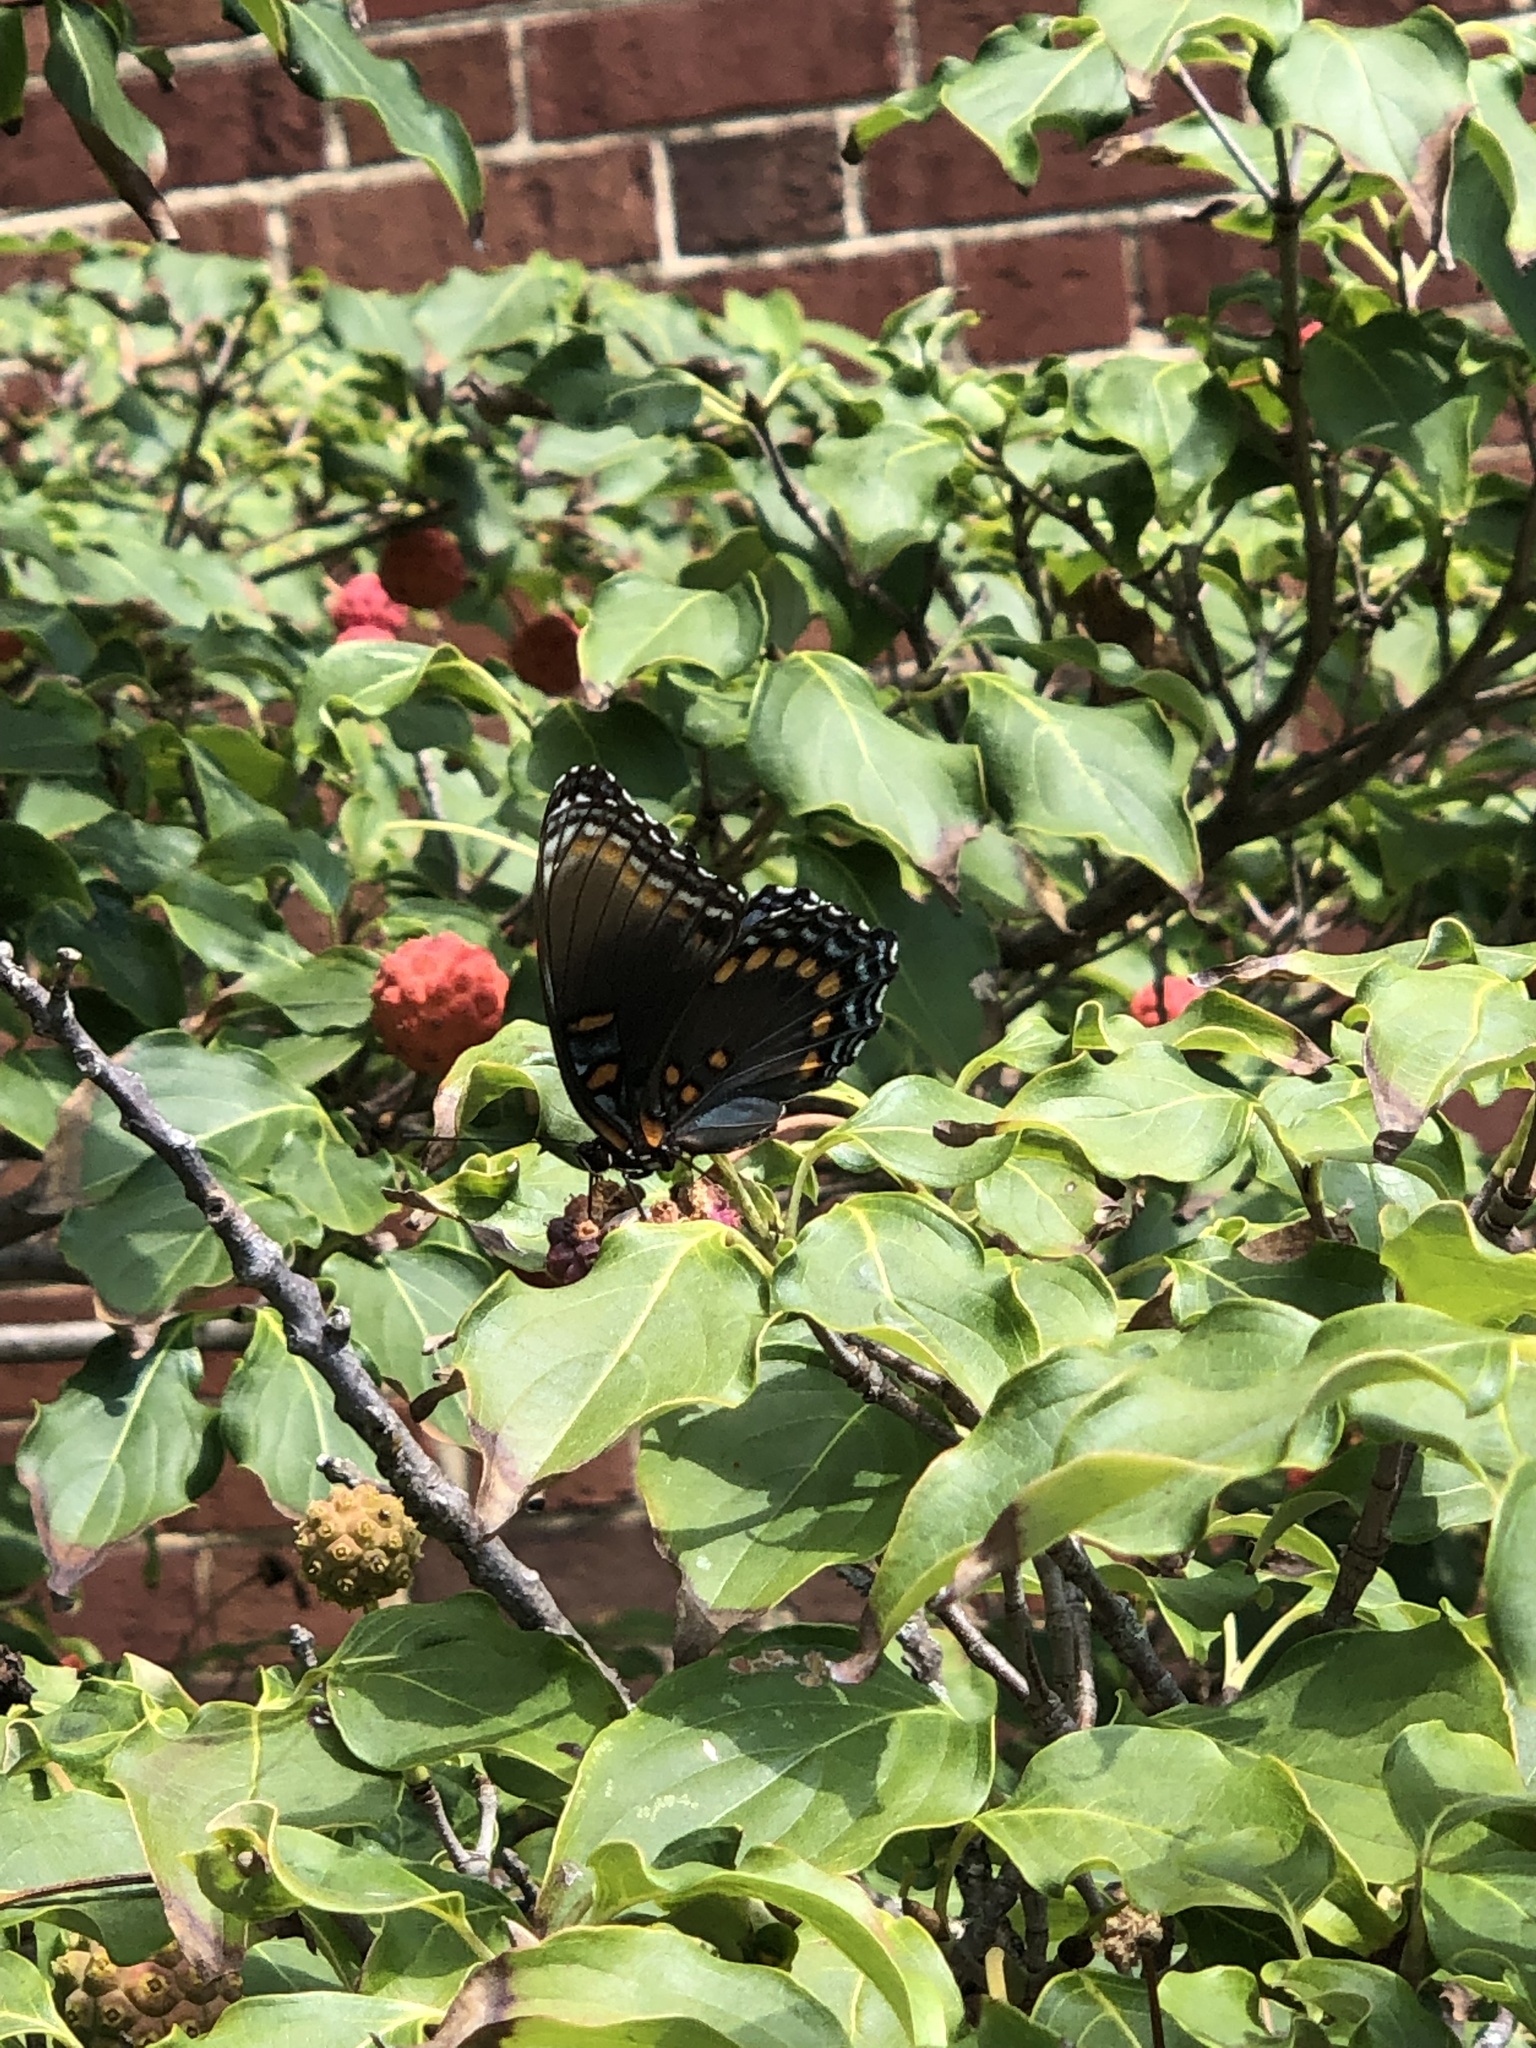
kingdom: Animalia
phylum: Arthropoda
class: Insecta
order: Lepidoptera
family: Nymphalidae
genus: Limenitis
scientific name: Limenitis astyanax
